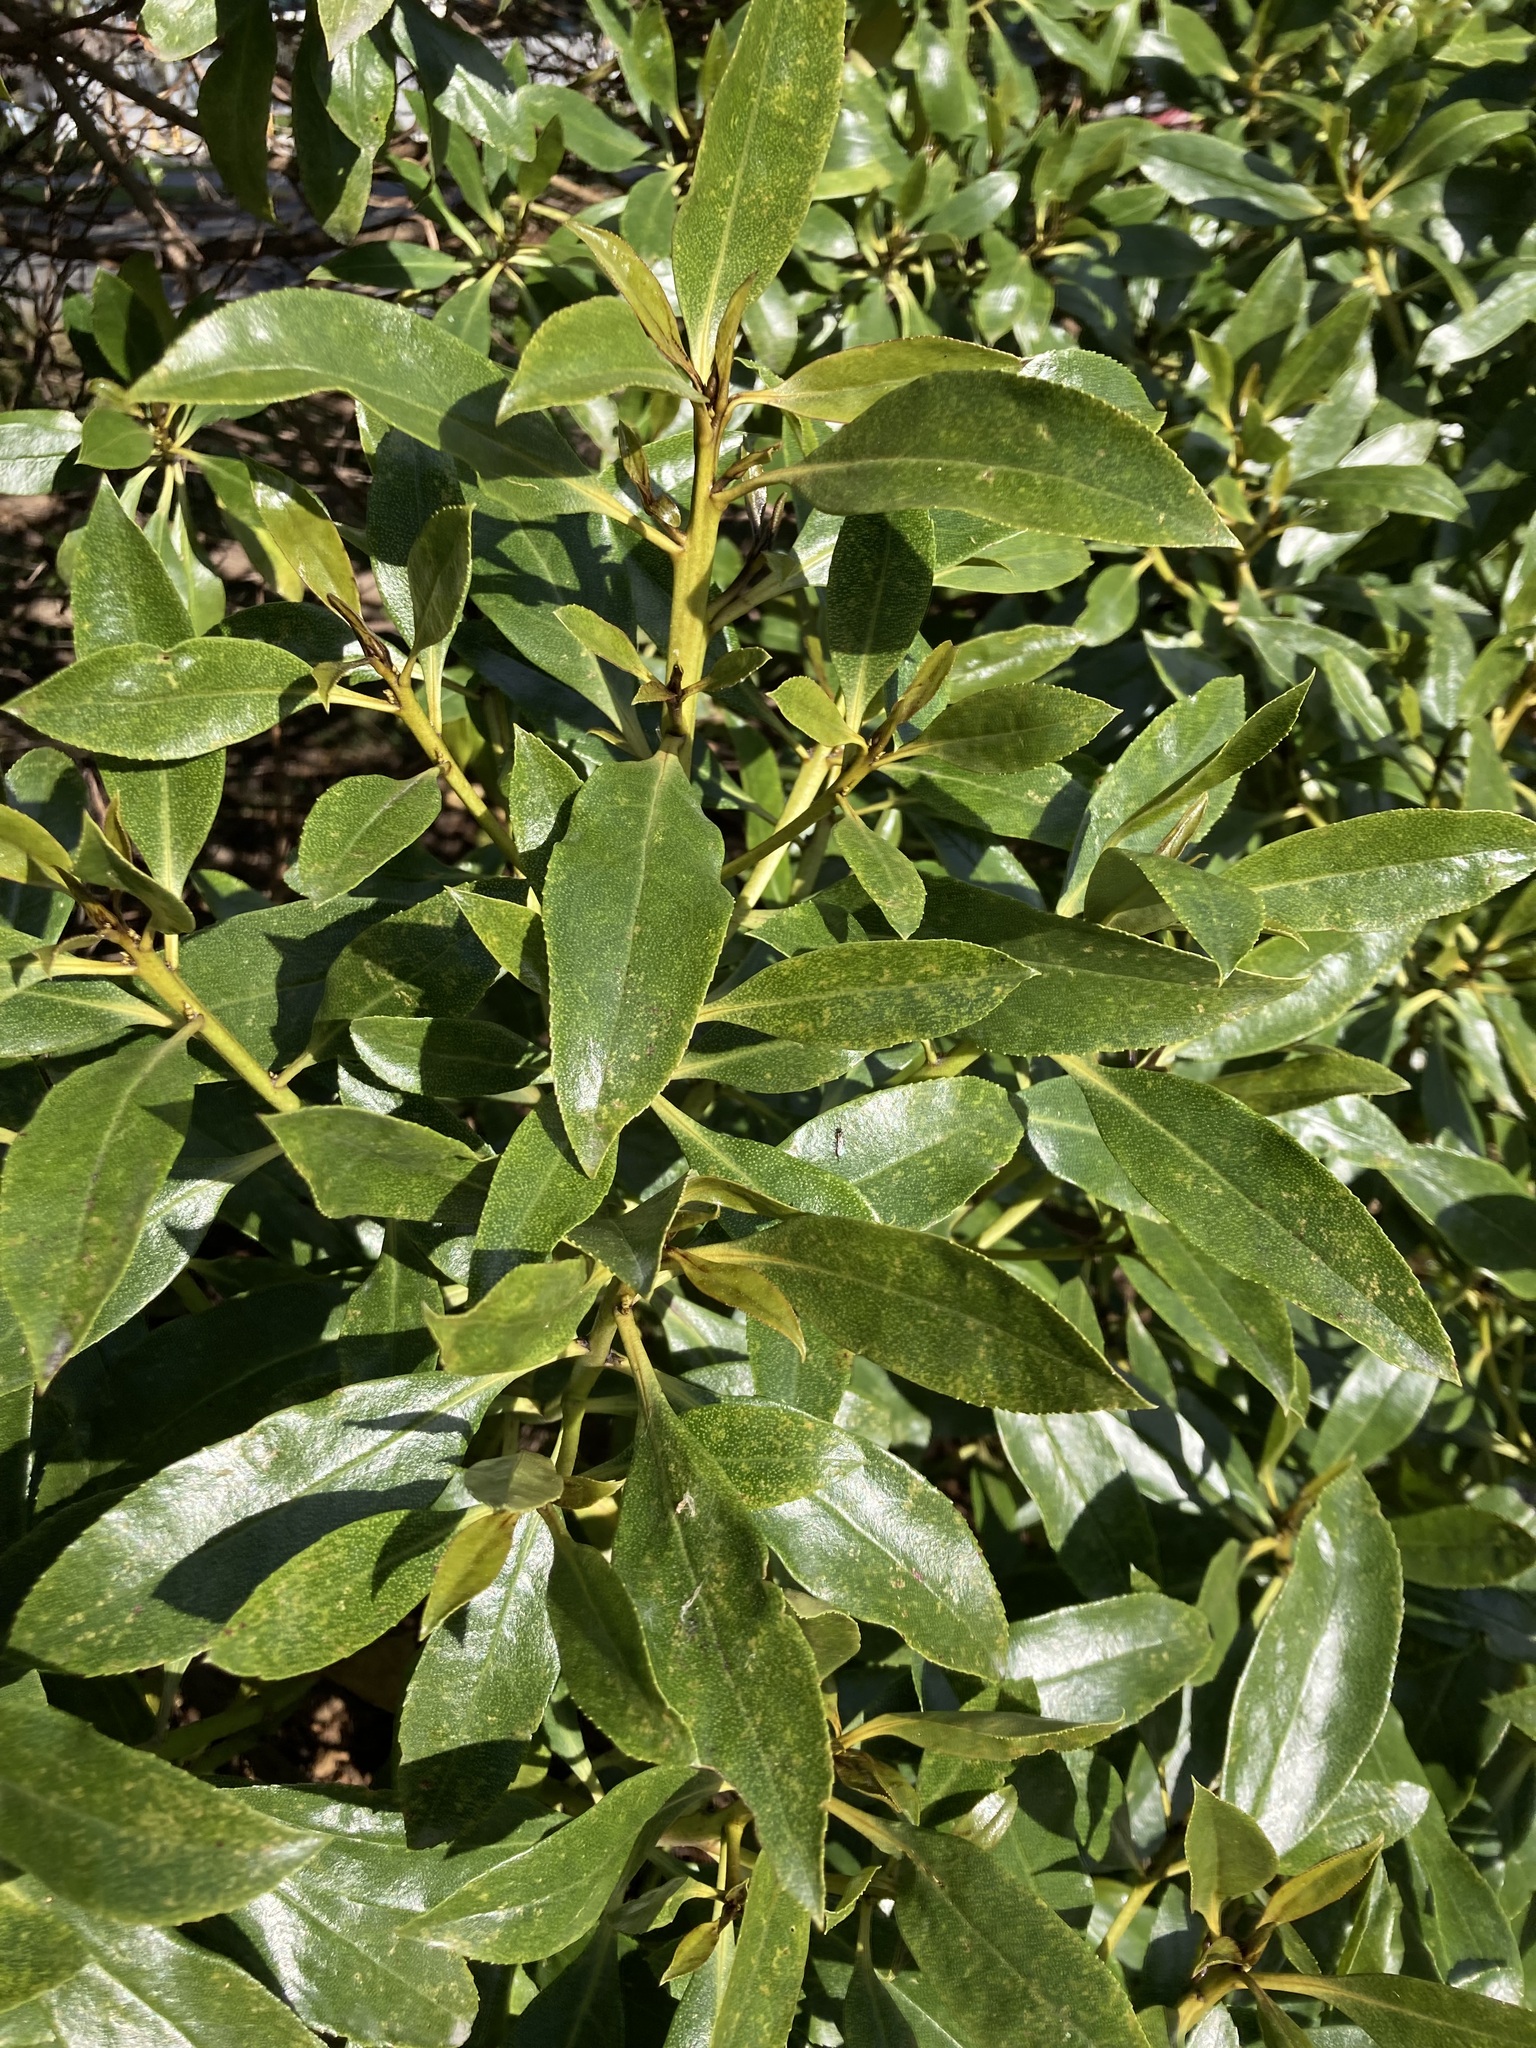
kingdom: Plantae
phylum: Tracheophyta
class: Magnoliopsida
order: Lamiales
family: Scrophulariaceae
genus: Myoporum
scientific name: Myoporum laetum
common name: Ngaio tree
